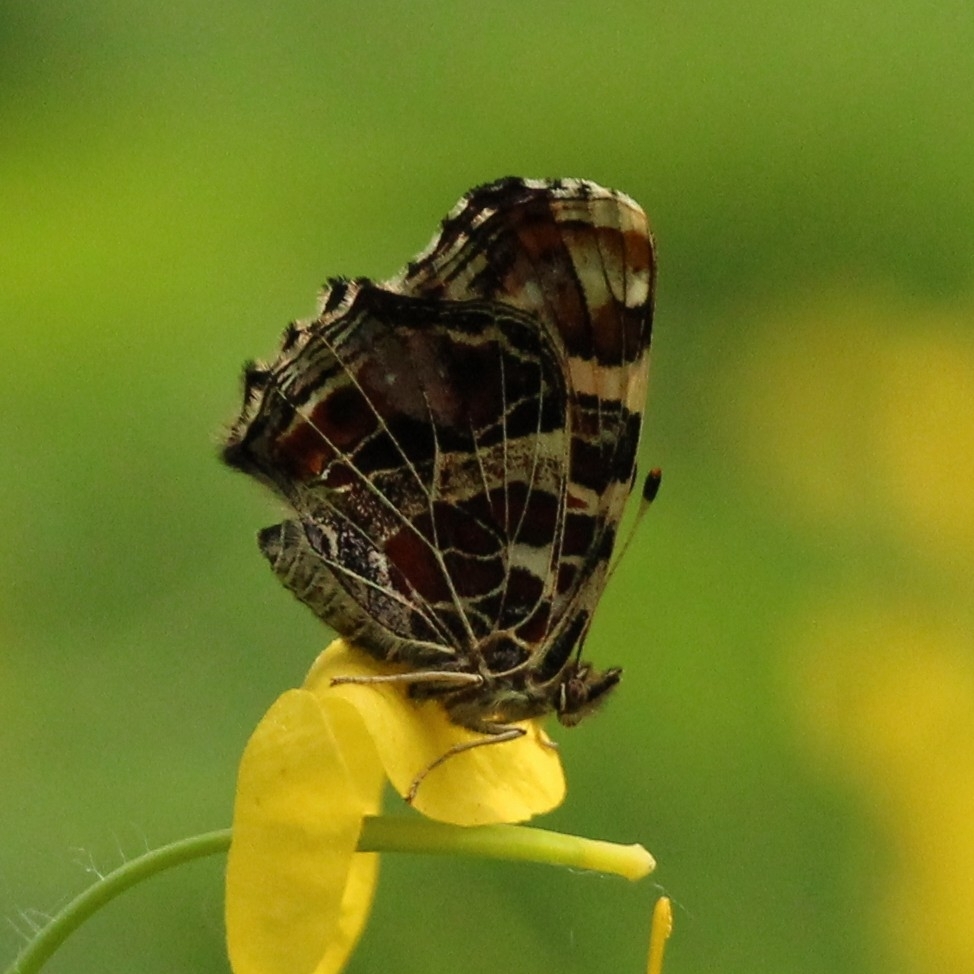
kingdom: Animalia
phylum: Arthropoda
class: Insecta
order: Lepidoptera
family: Nymphalidae
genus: Araschnia
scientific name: Araschnia levana
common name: Map butterfly
